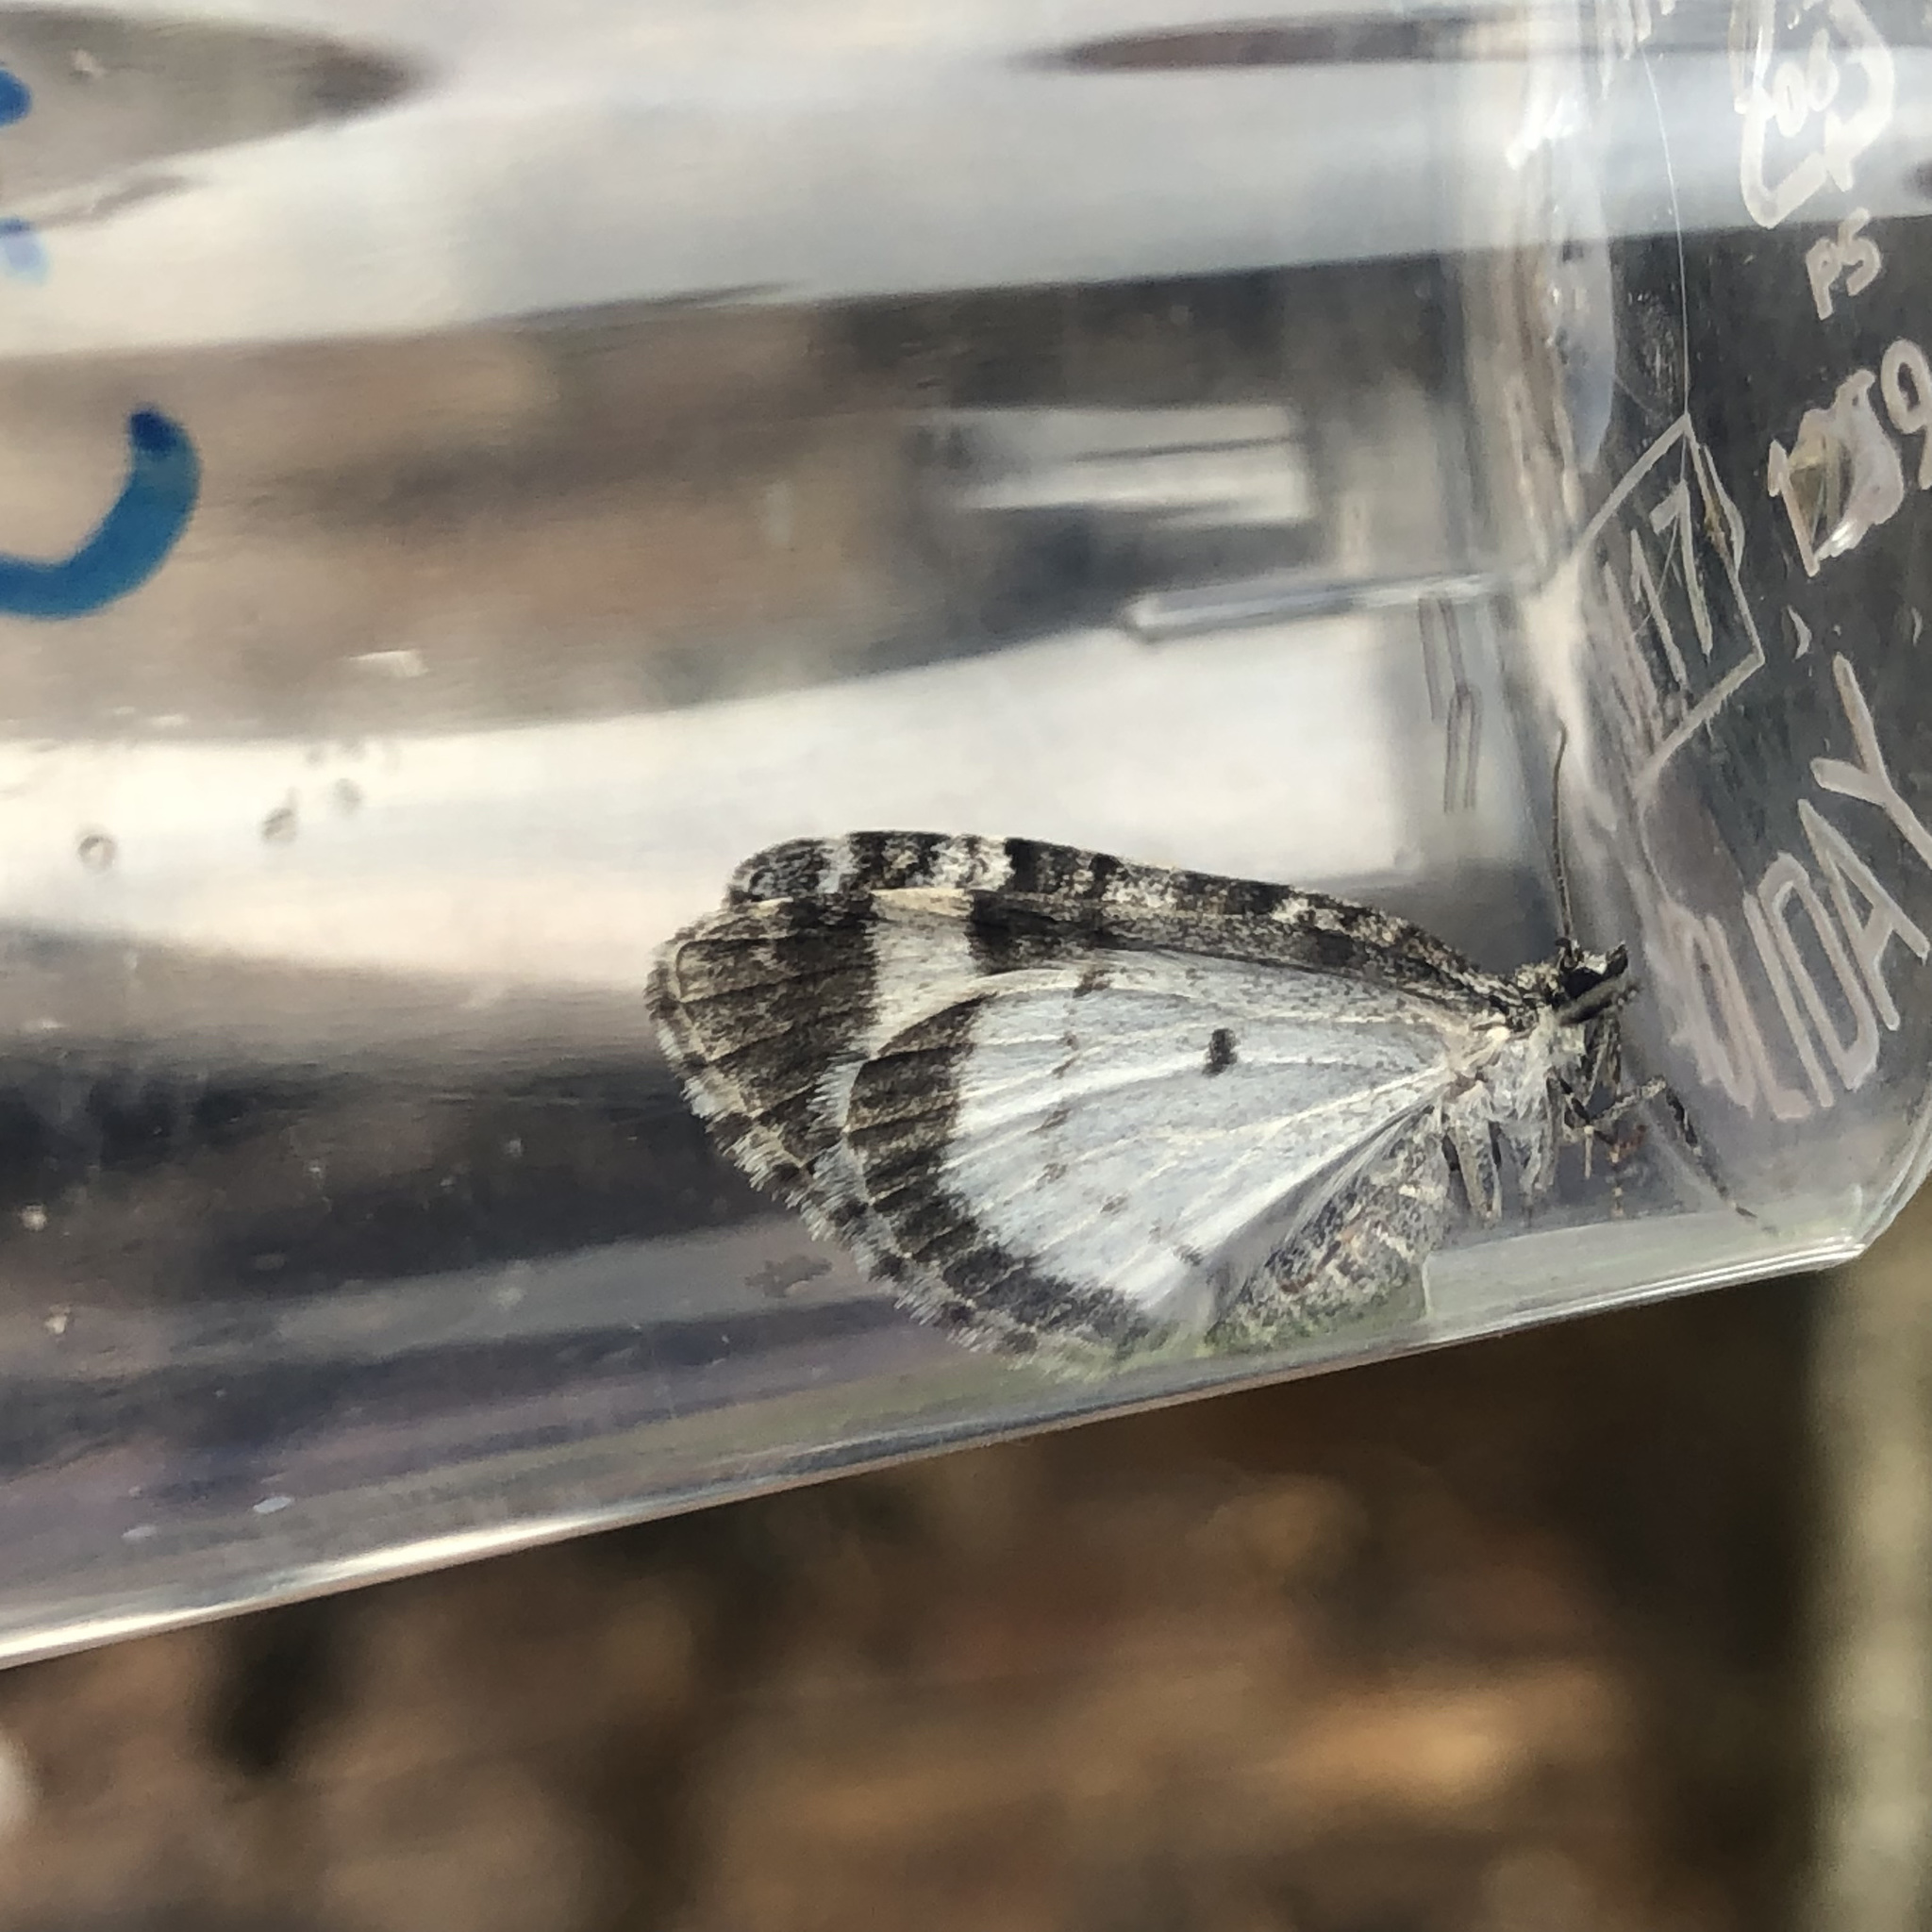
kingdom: Animalia
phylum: Arthropoda
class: Insecta
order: Lepidoptera
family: Geometridae
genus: Colostygia
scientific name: Colostygia turbata
